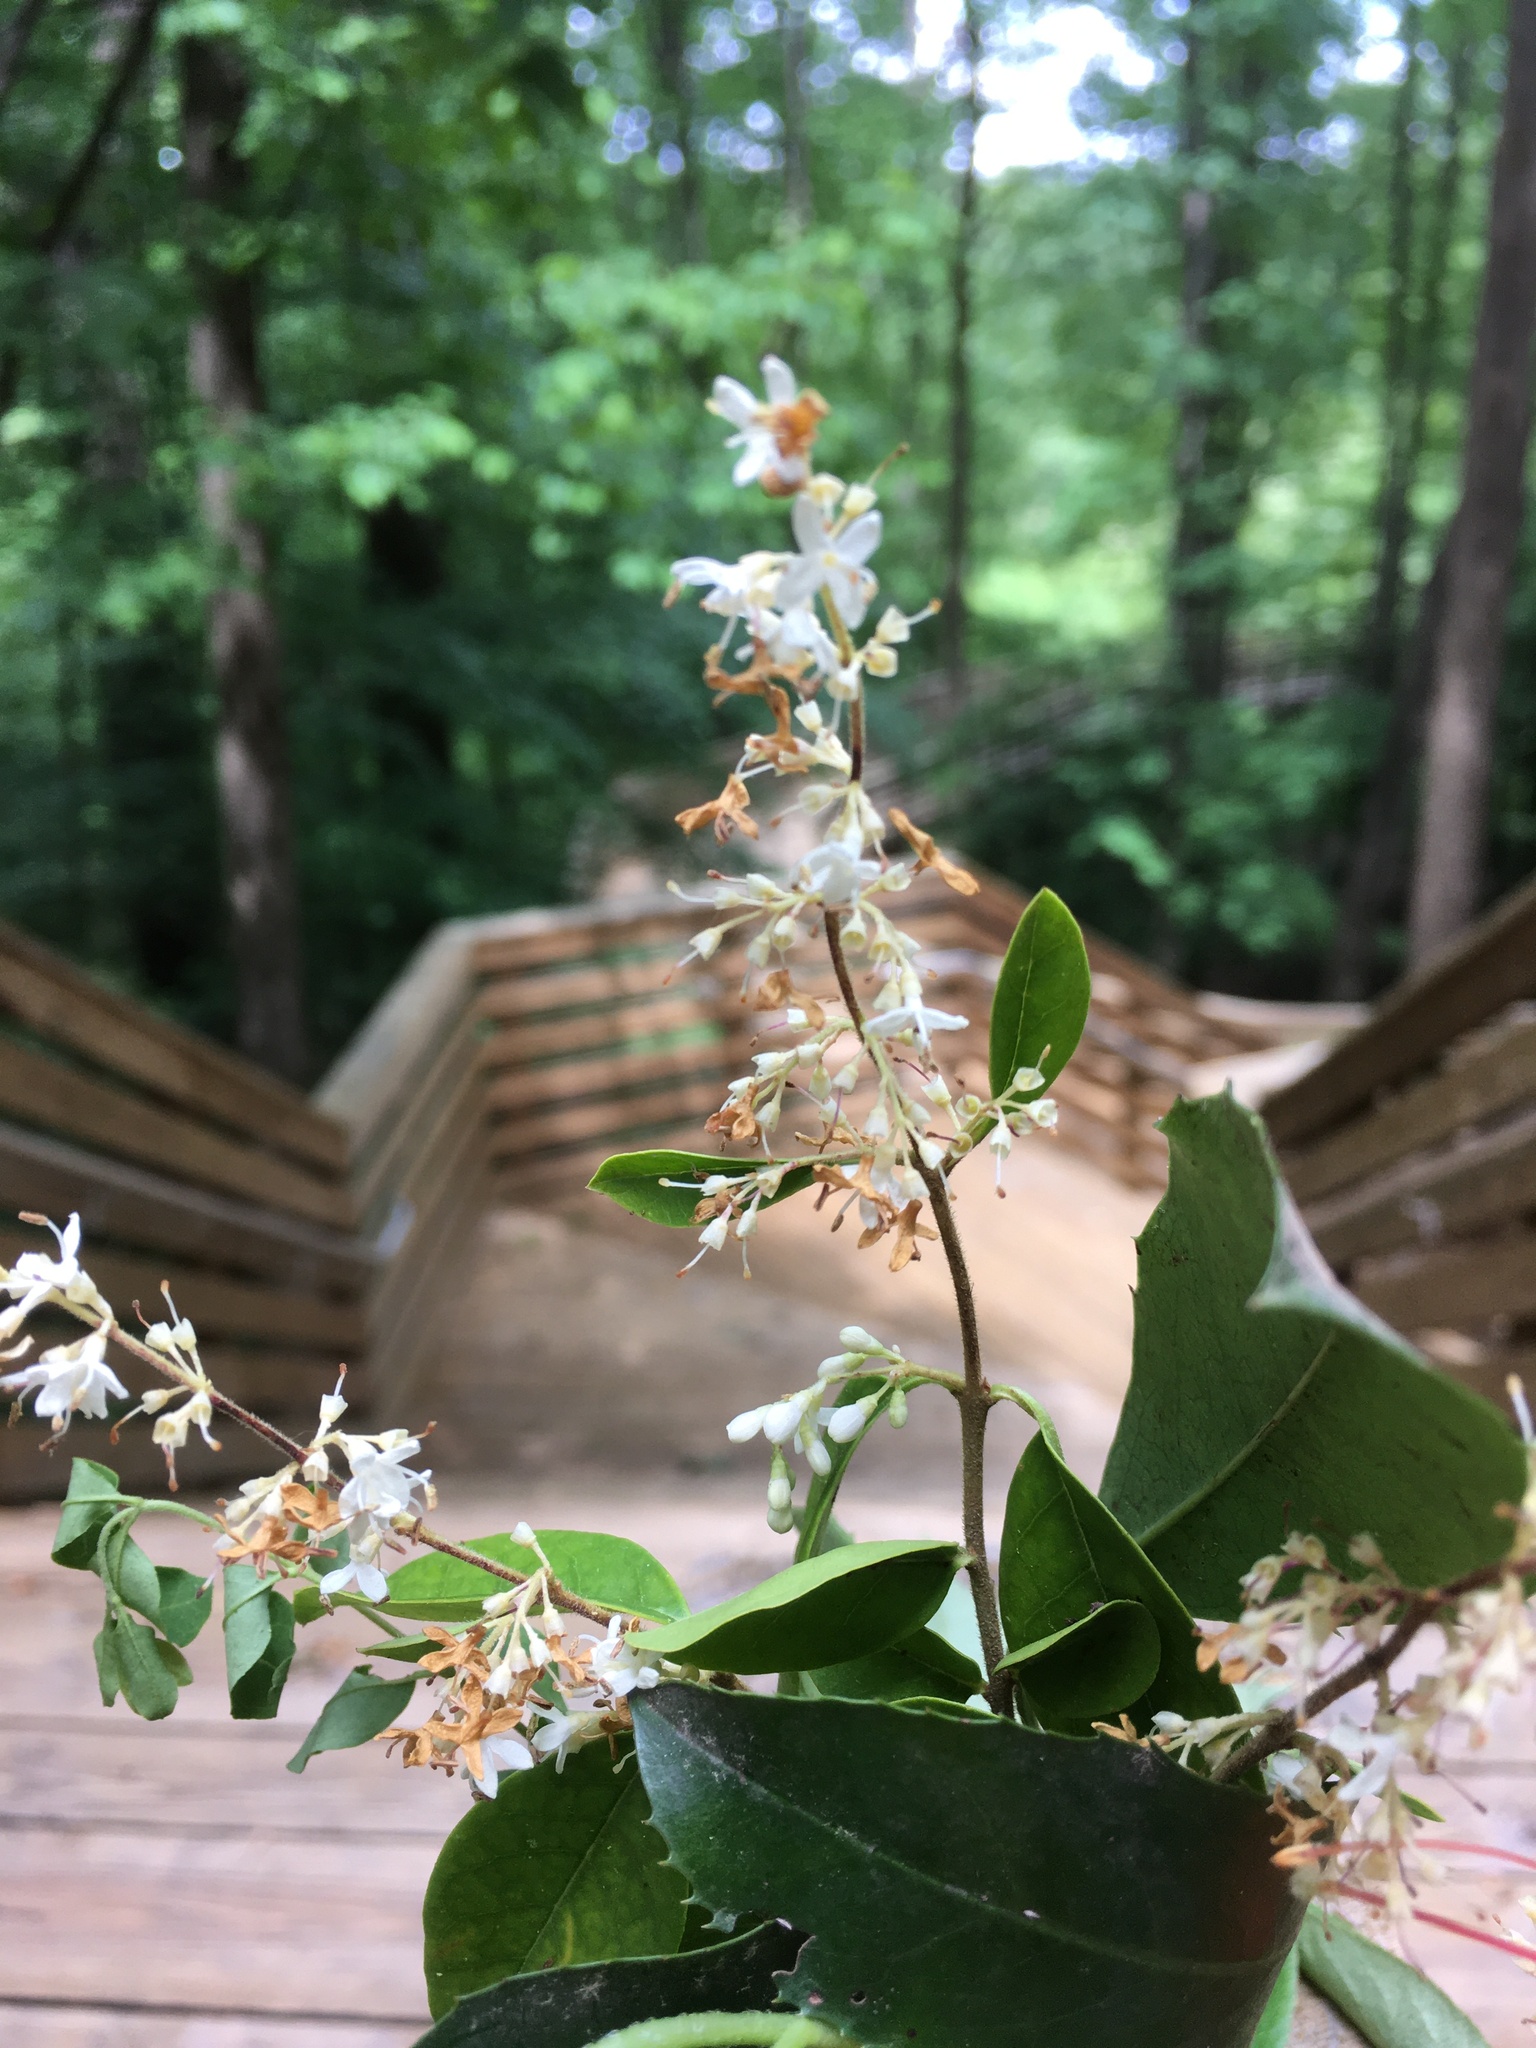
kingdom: Plantae
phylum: Tracheophyta
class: Magnoliopsida
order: Lamiales
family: Oleaceae
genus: Ligustrum
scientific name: Ligustrum sinense
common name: Chinese privet
